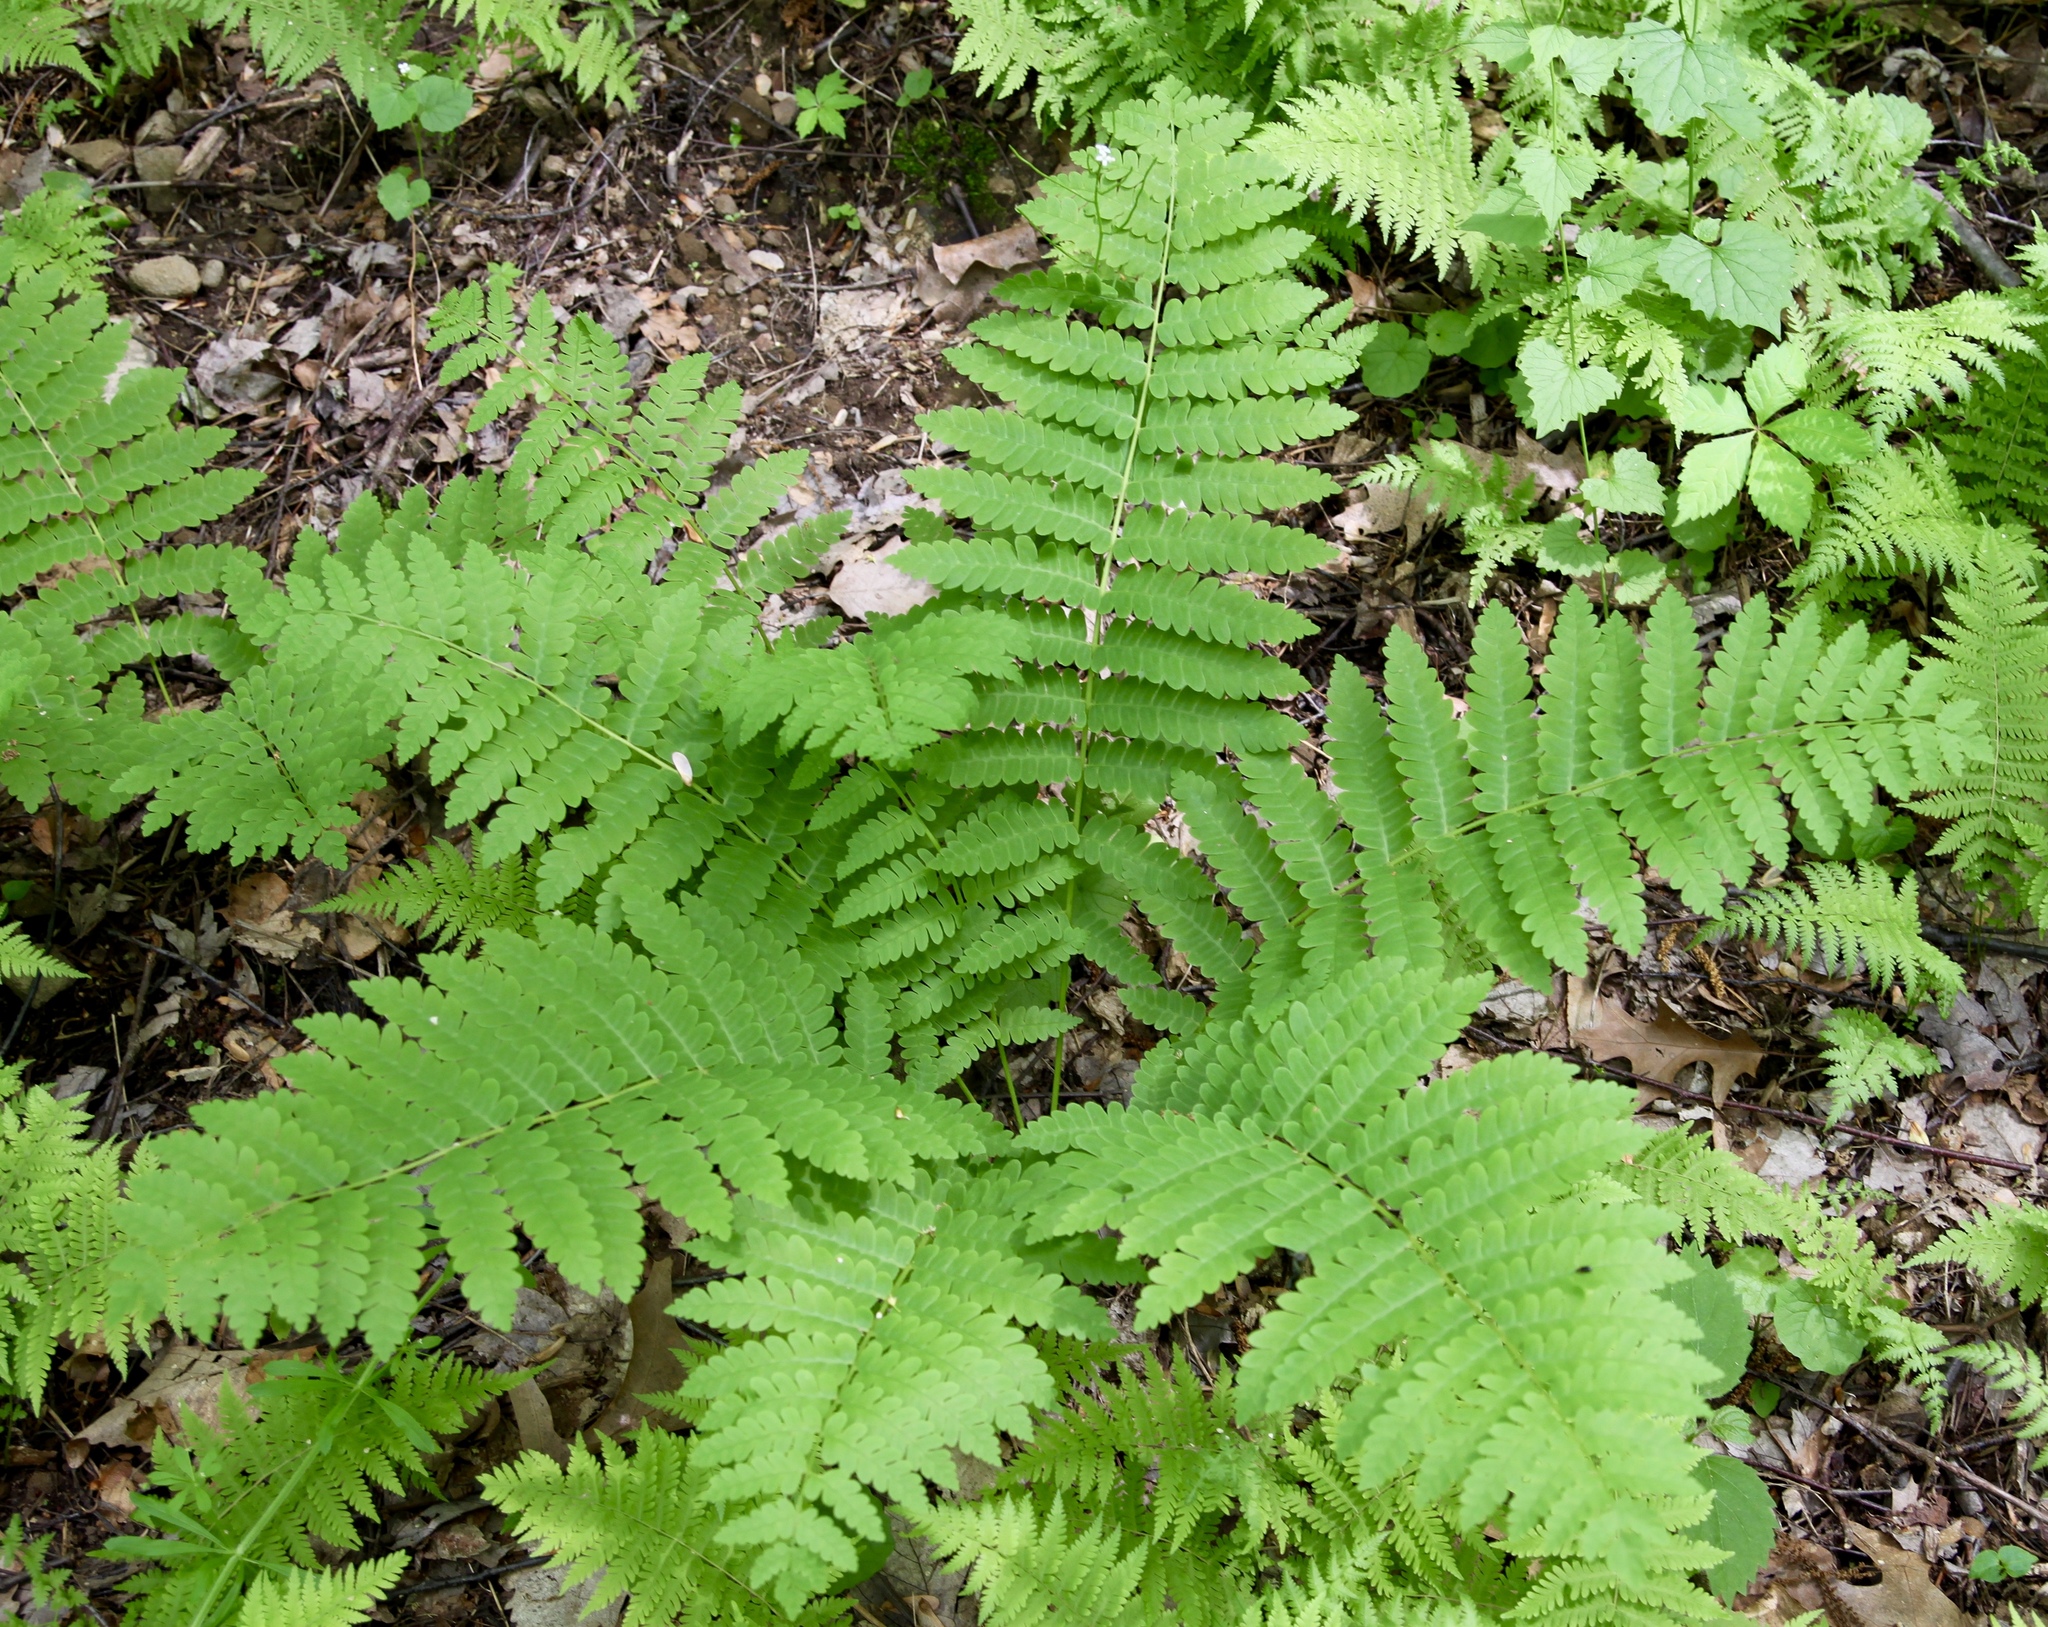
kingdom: Plantae
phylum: Tracheophyta
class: Polypodiopsida
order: Osmundales
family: Osmundaceae
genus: Claytosmunda
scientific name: Claytosmunda claytoniana
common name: Clayton's fern
